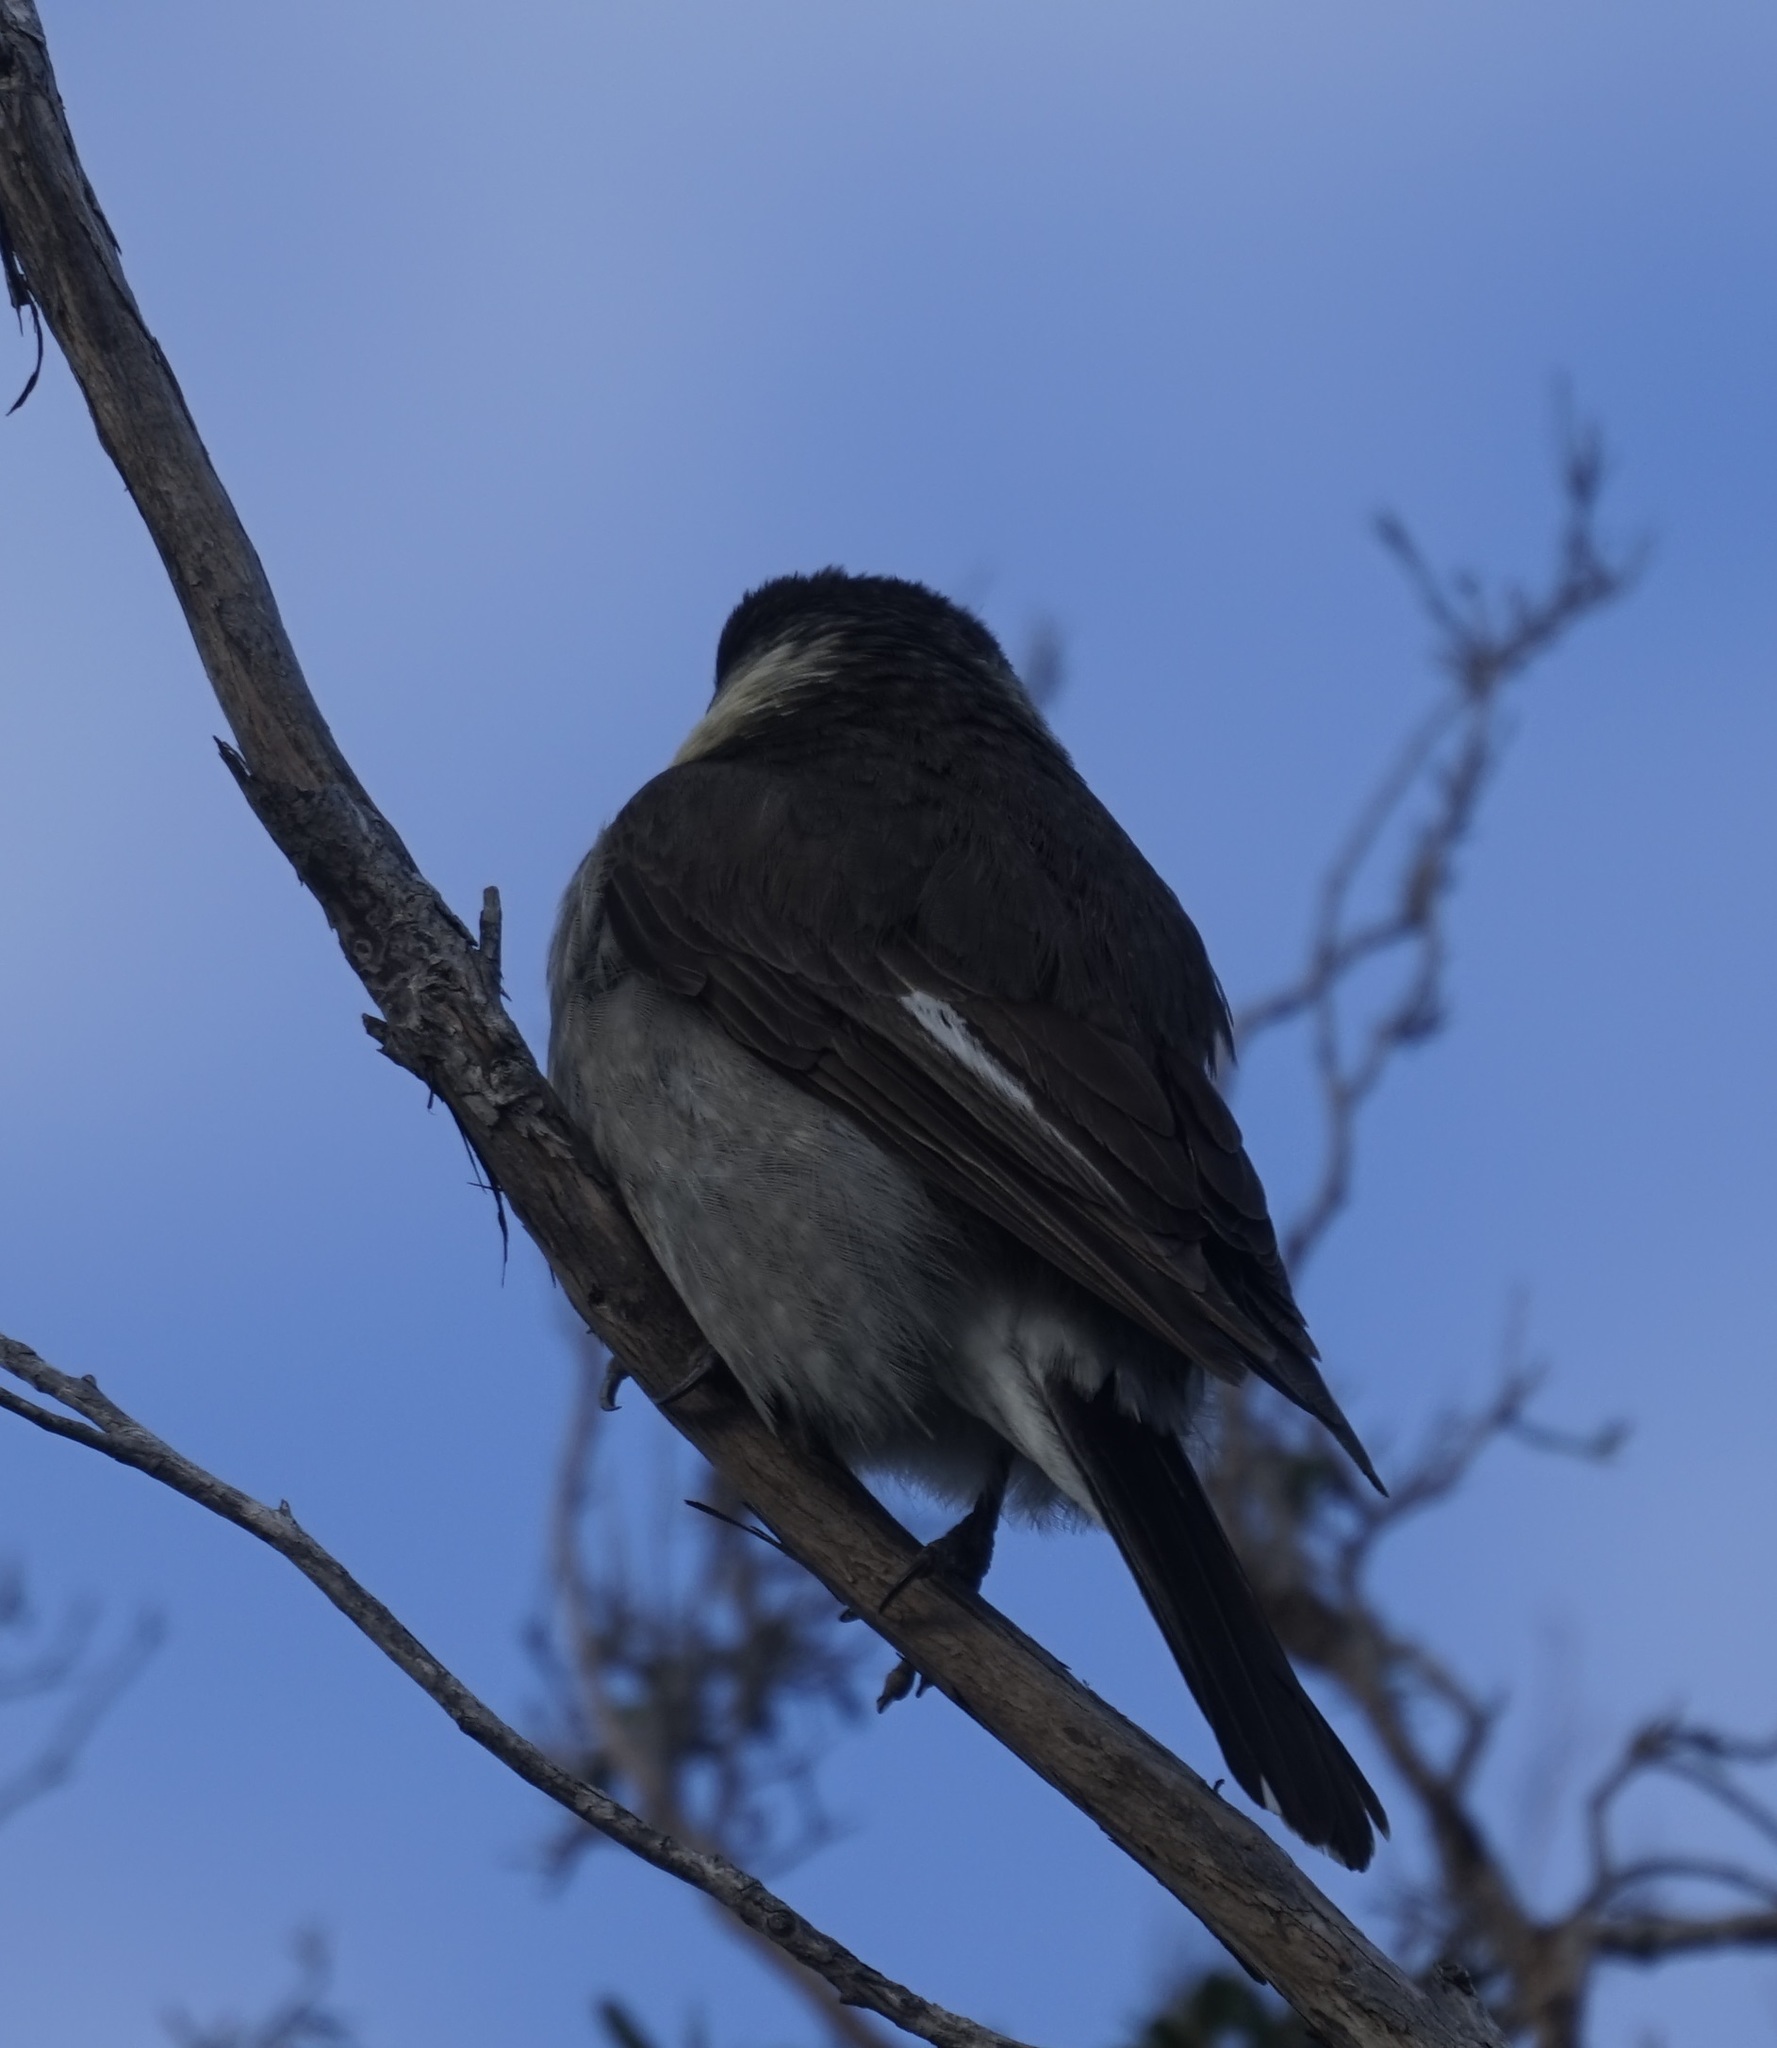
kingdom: Animalia
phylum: Chordata
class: Aves
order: Passeriformes
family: Cracticidae
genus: Cracticus
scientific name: Cracticus torquatus
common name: Grey butcherbird
